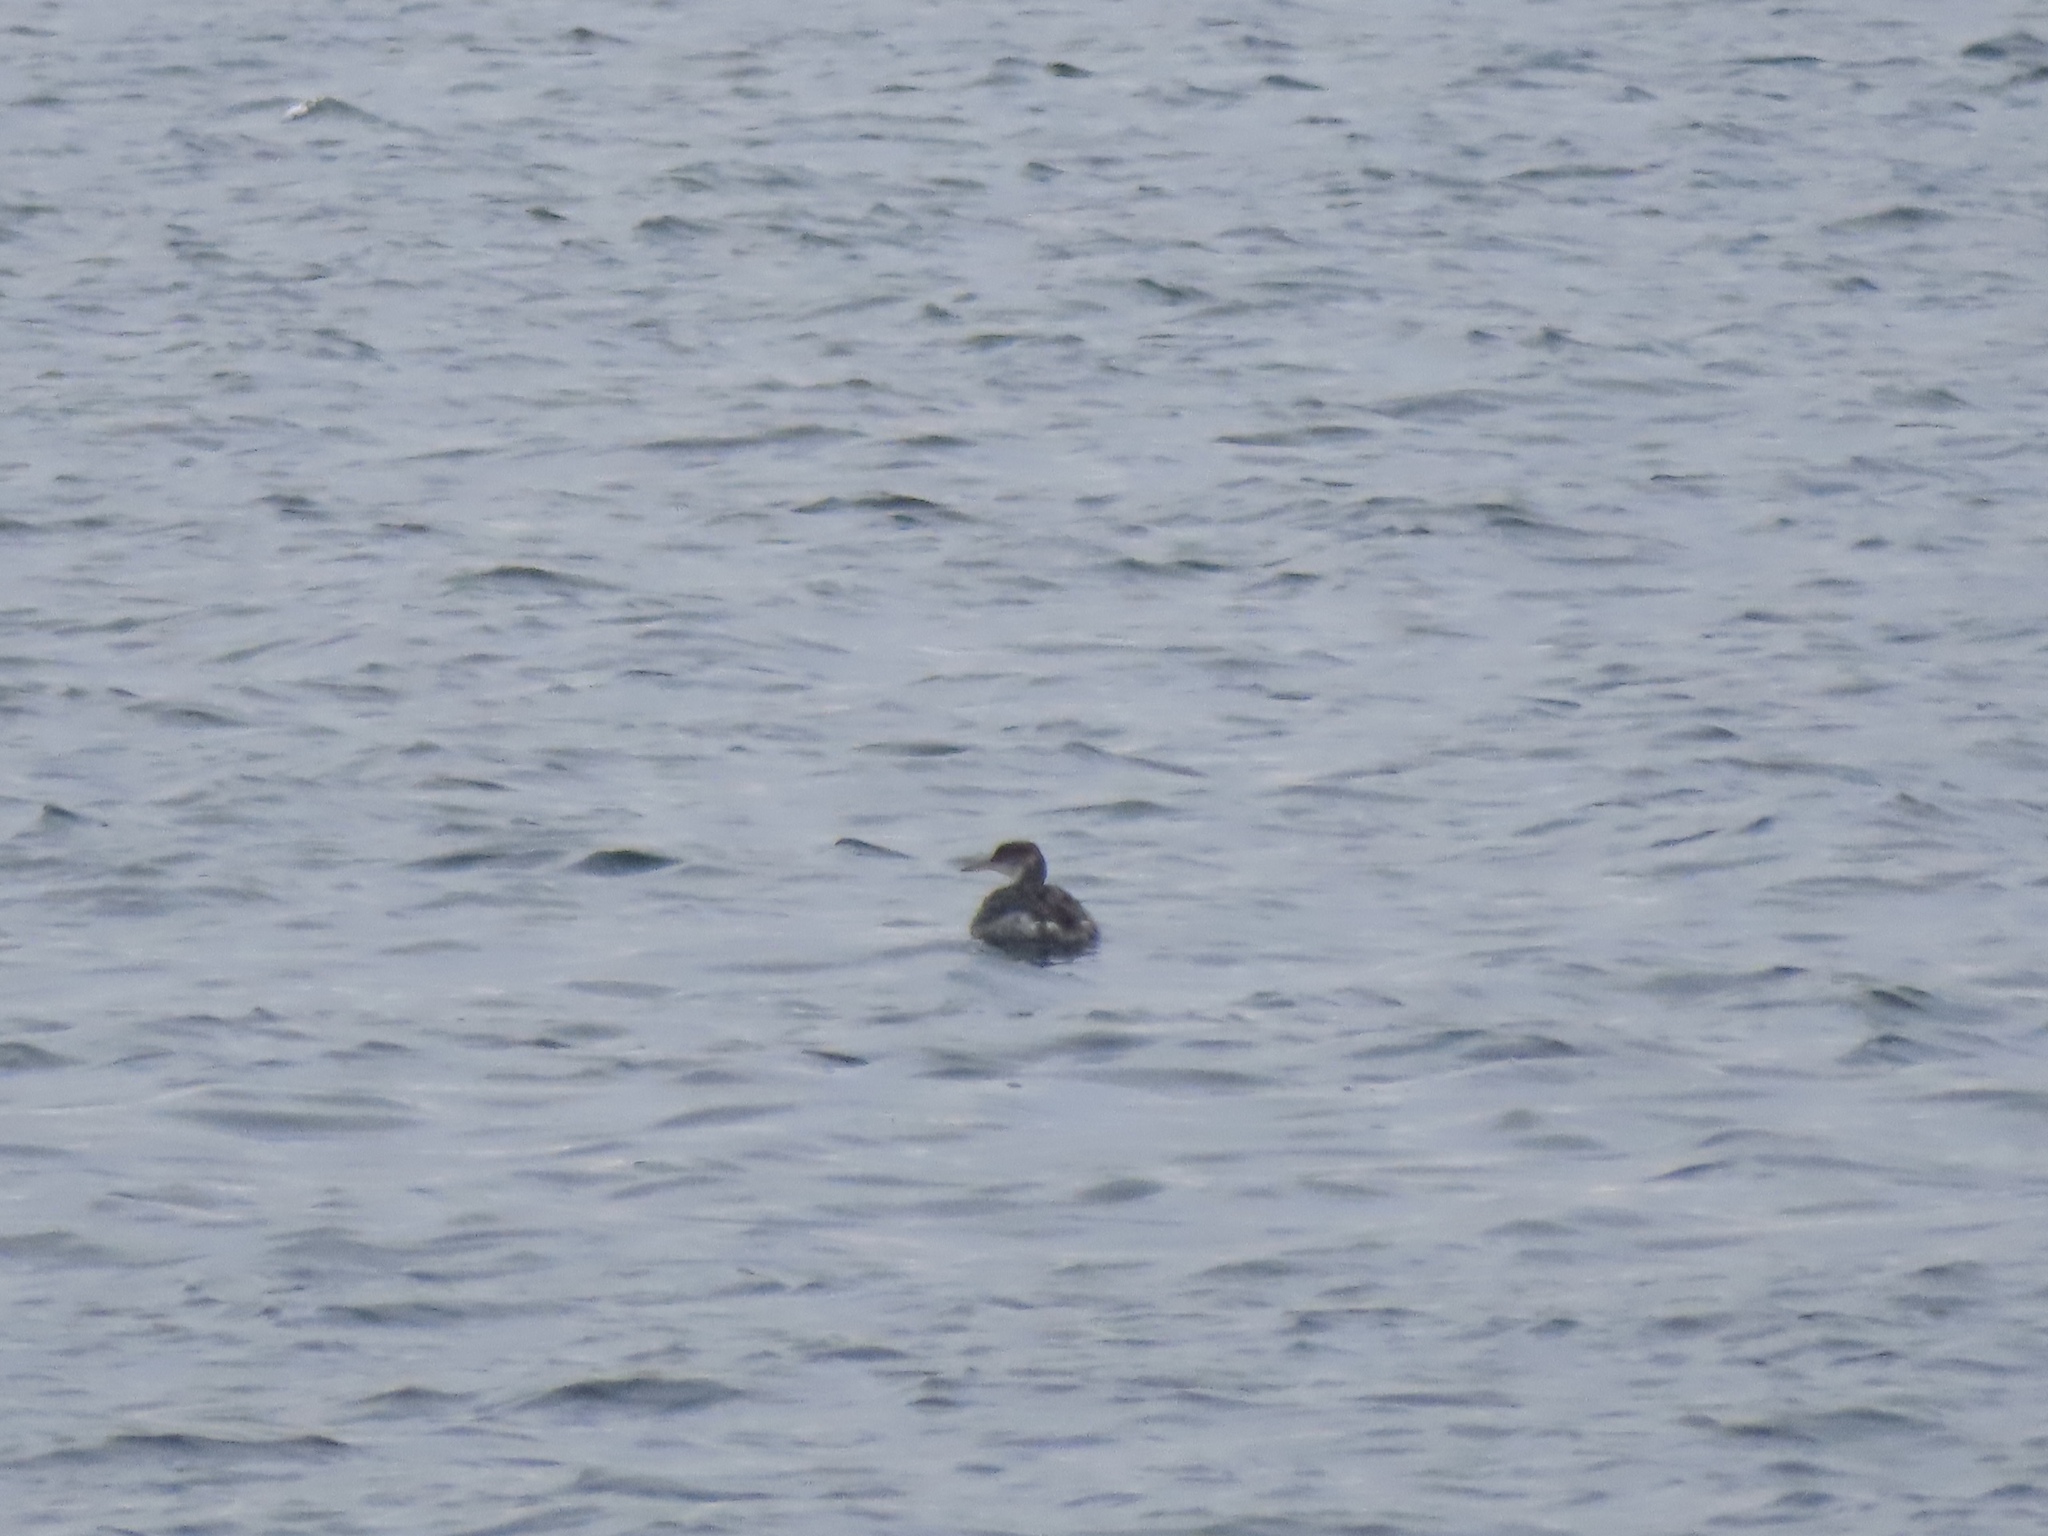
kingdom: Animalia
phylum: Chordata
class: Aves
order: Podicipediformes
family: Podicipedidae
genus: Podiceps
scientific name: Podiceps grisegena
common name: Red-necked grebe
